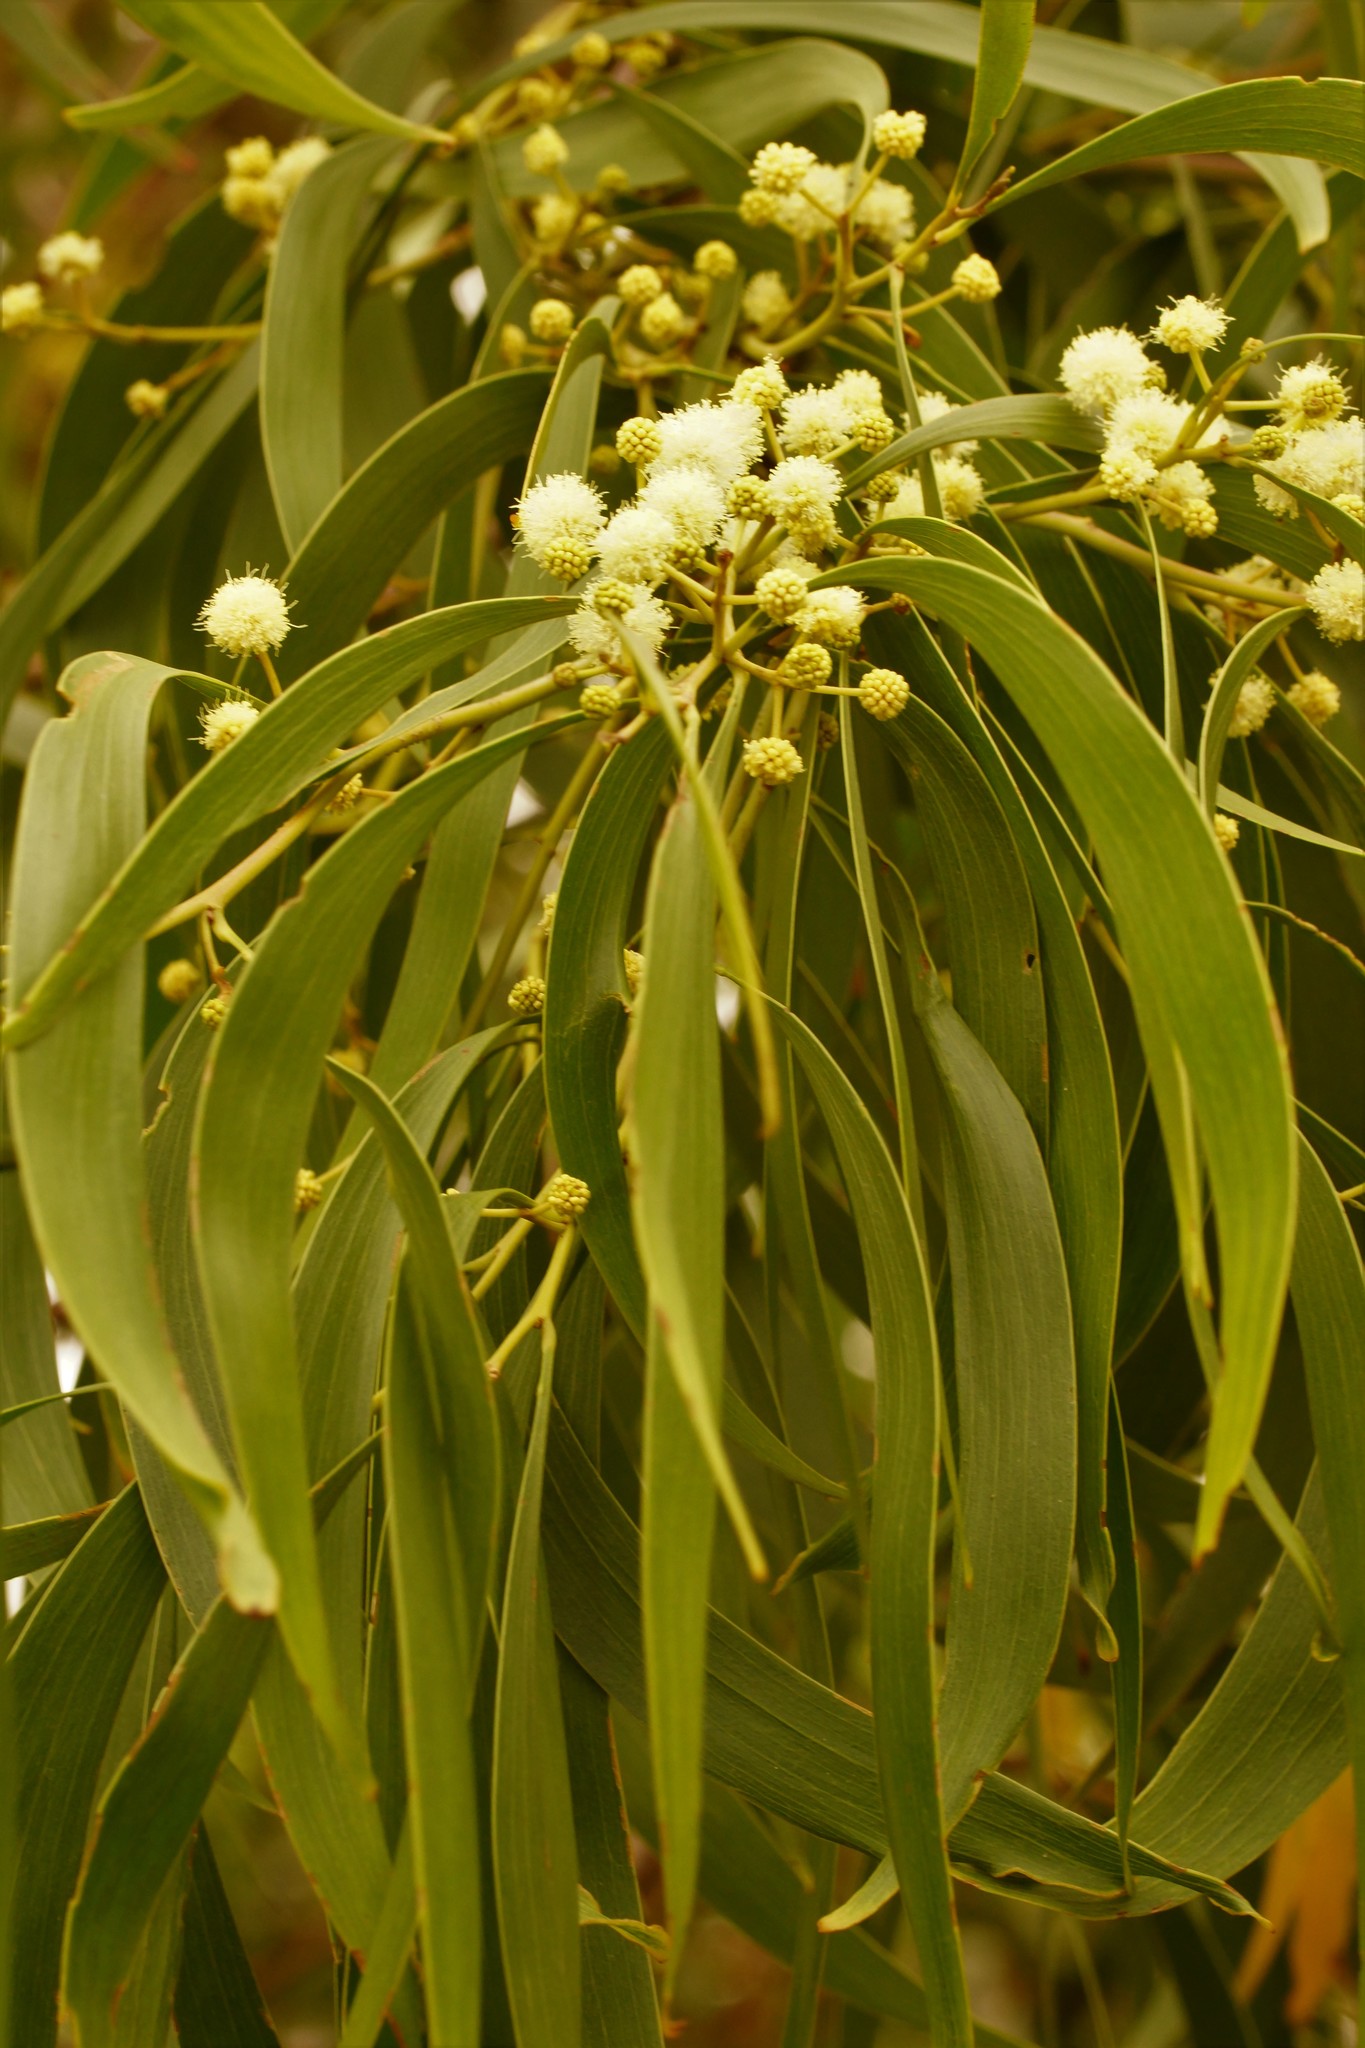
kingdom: Plantae
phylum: Tracheophyta
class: Magnoliopsida
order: Fabales
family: Fabaceae
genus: Acacia
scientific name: Acacia implexa
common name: Black wattle
